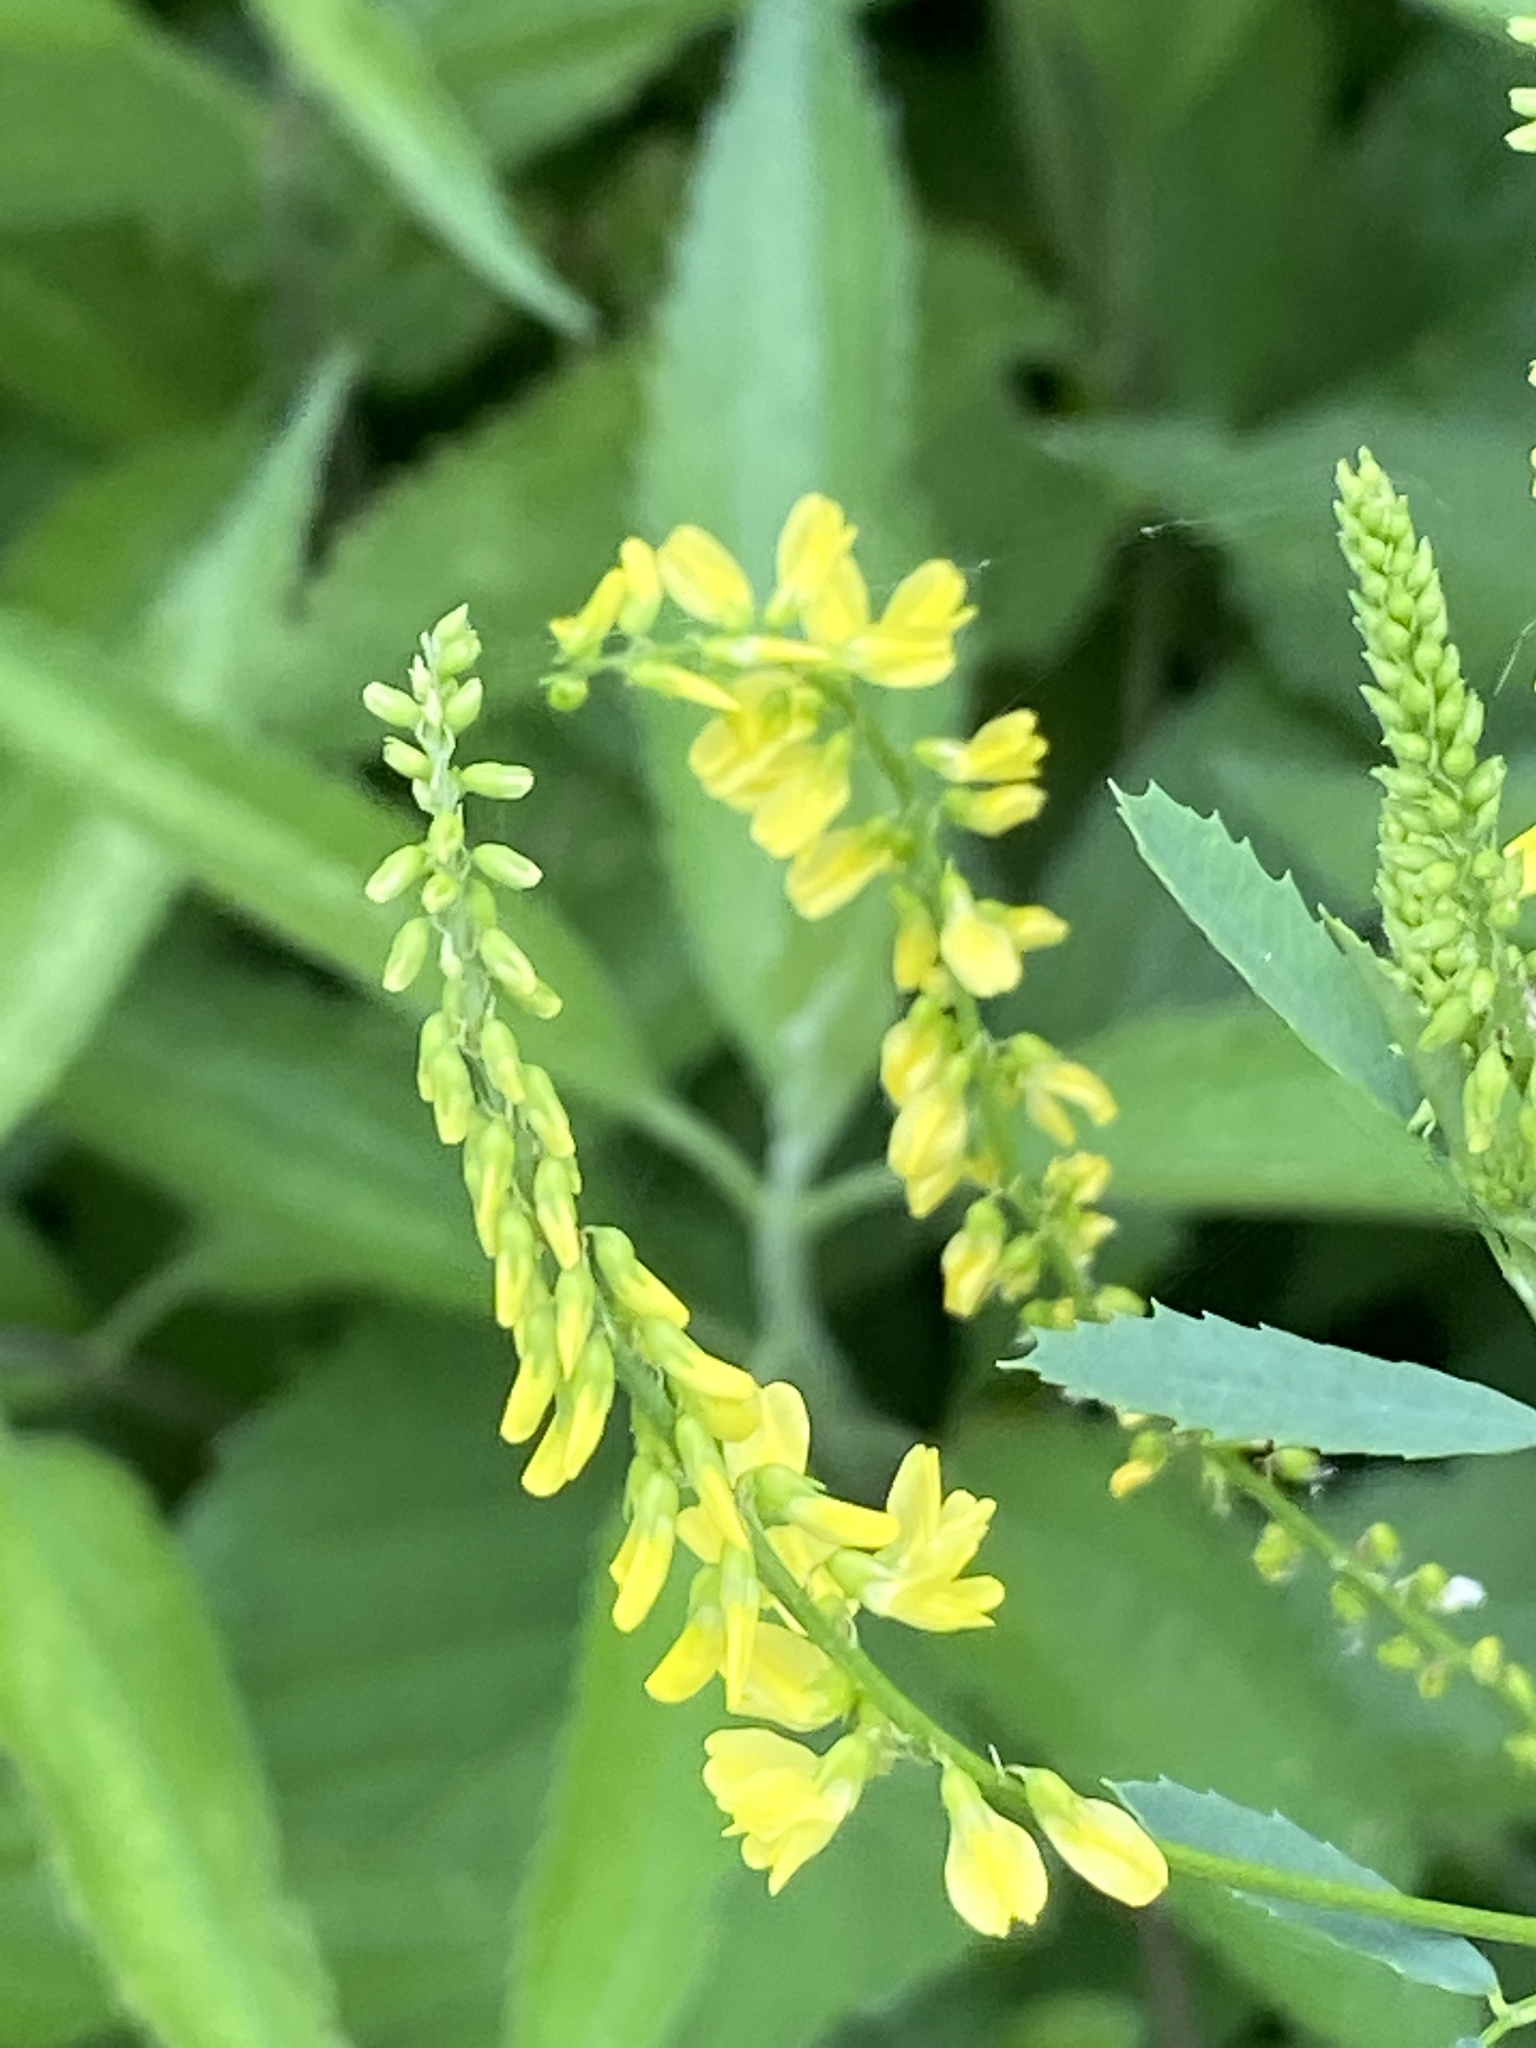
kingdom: Plantae
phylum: Tracheophyta
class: Magnoliopsida
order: Fabales
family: Fabaceae
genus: Melilotus
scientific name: Melilotus officinalis
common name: Sweetclover
